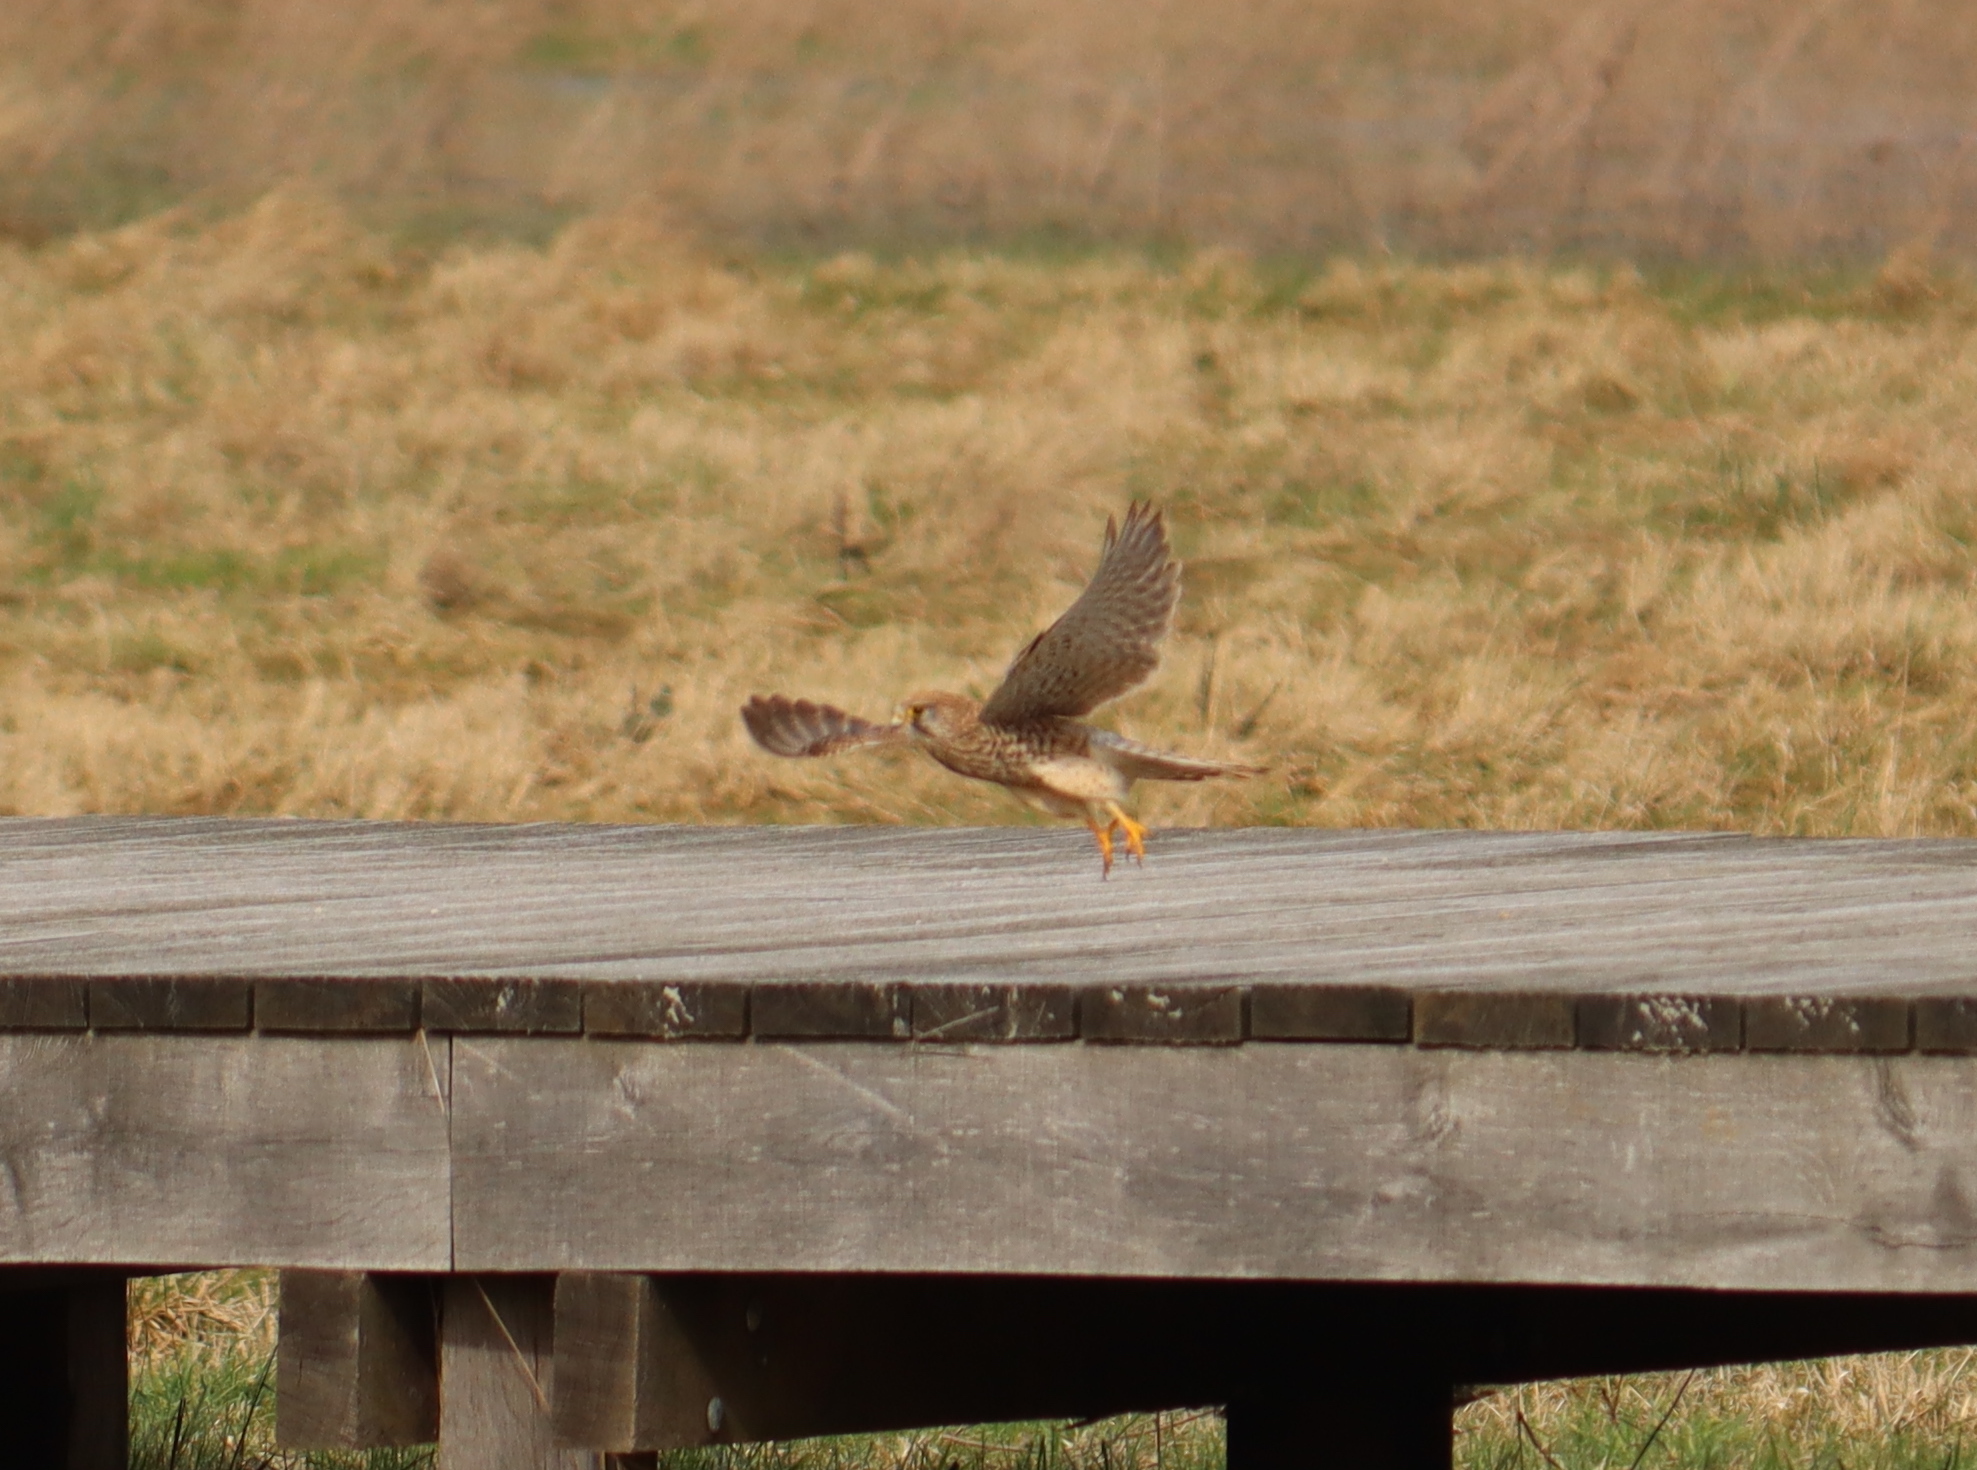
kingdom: Animalia
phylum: Chordata
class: Aves
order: Falconiformes
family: Falconidae
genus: Falco
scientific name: Falco tinnunculus
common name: Common kestrel
